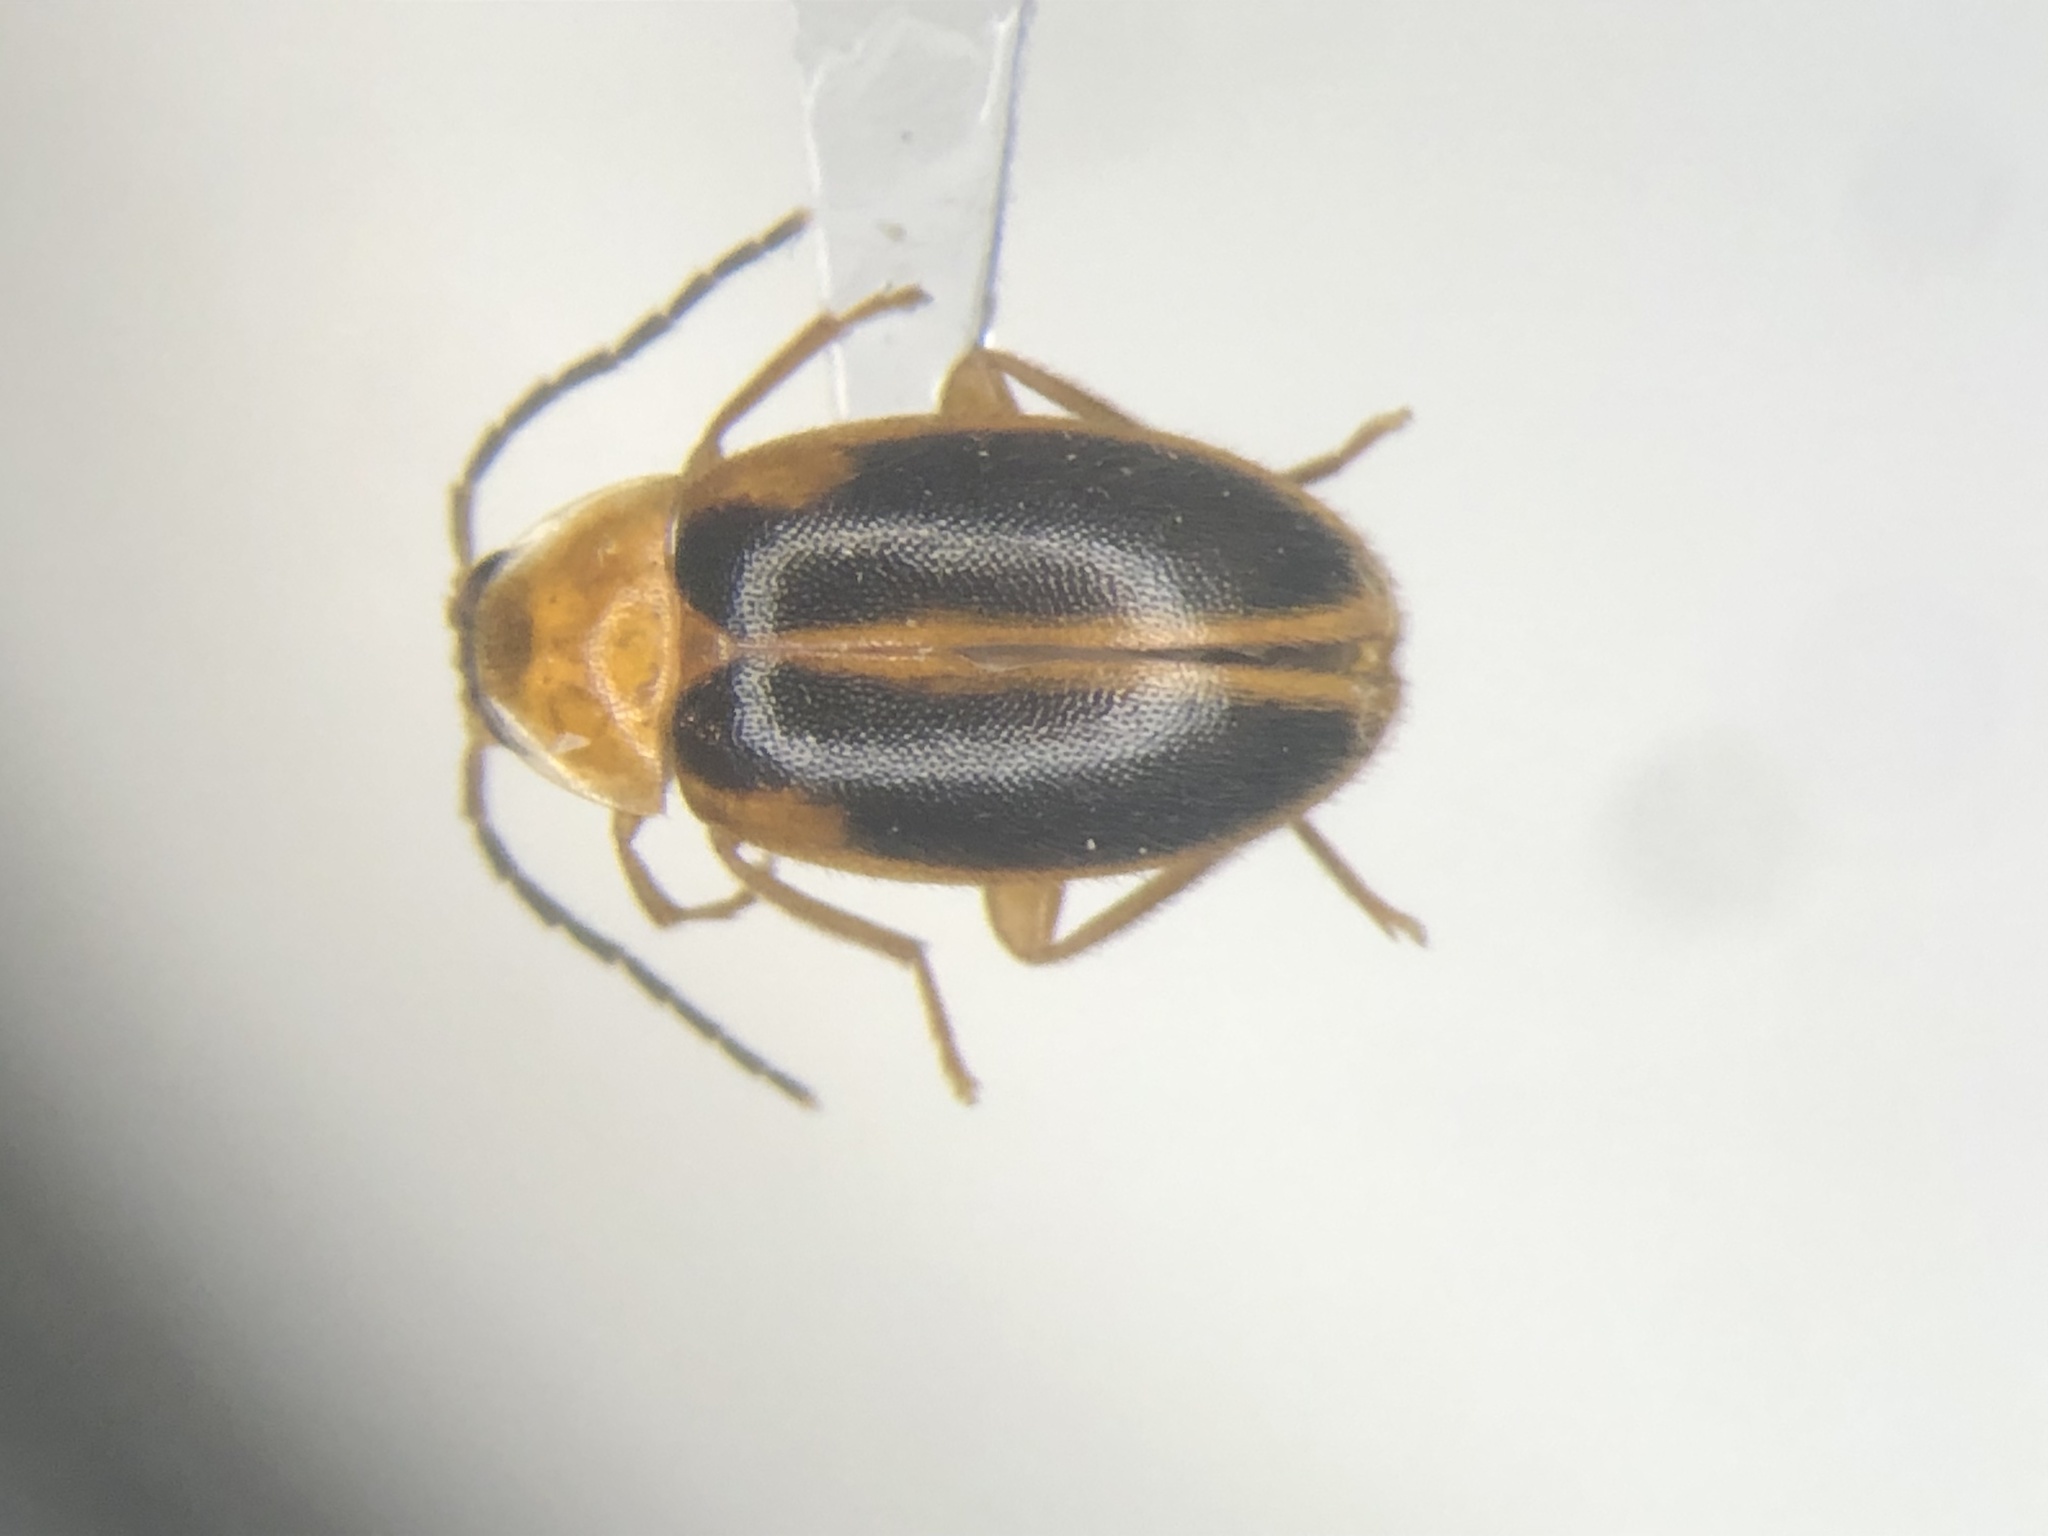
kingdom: Animalia
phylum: Arthropoda
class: Insecta
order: Coleoptera
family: Scirtidae
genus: Sacodes
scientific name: Sacodes pulchella
